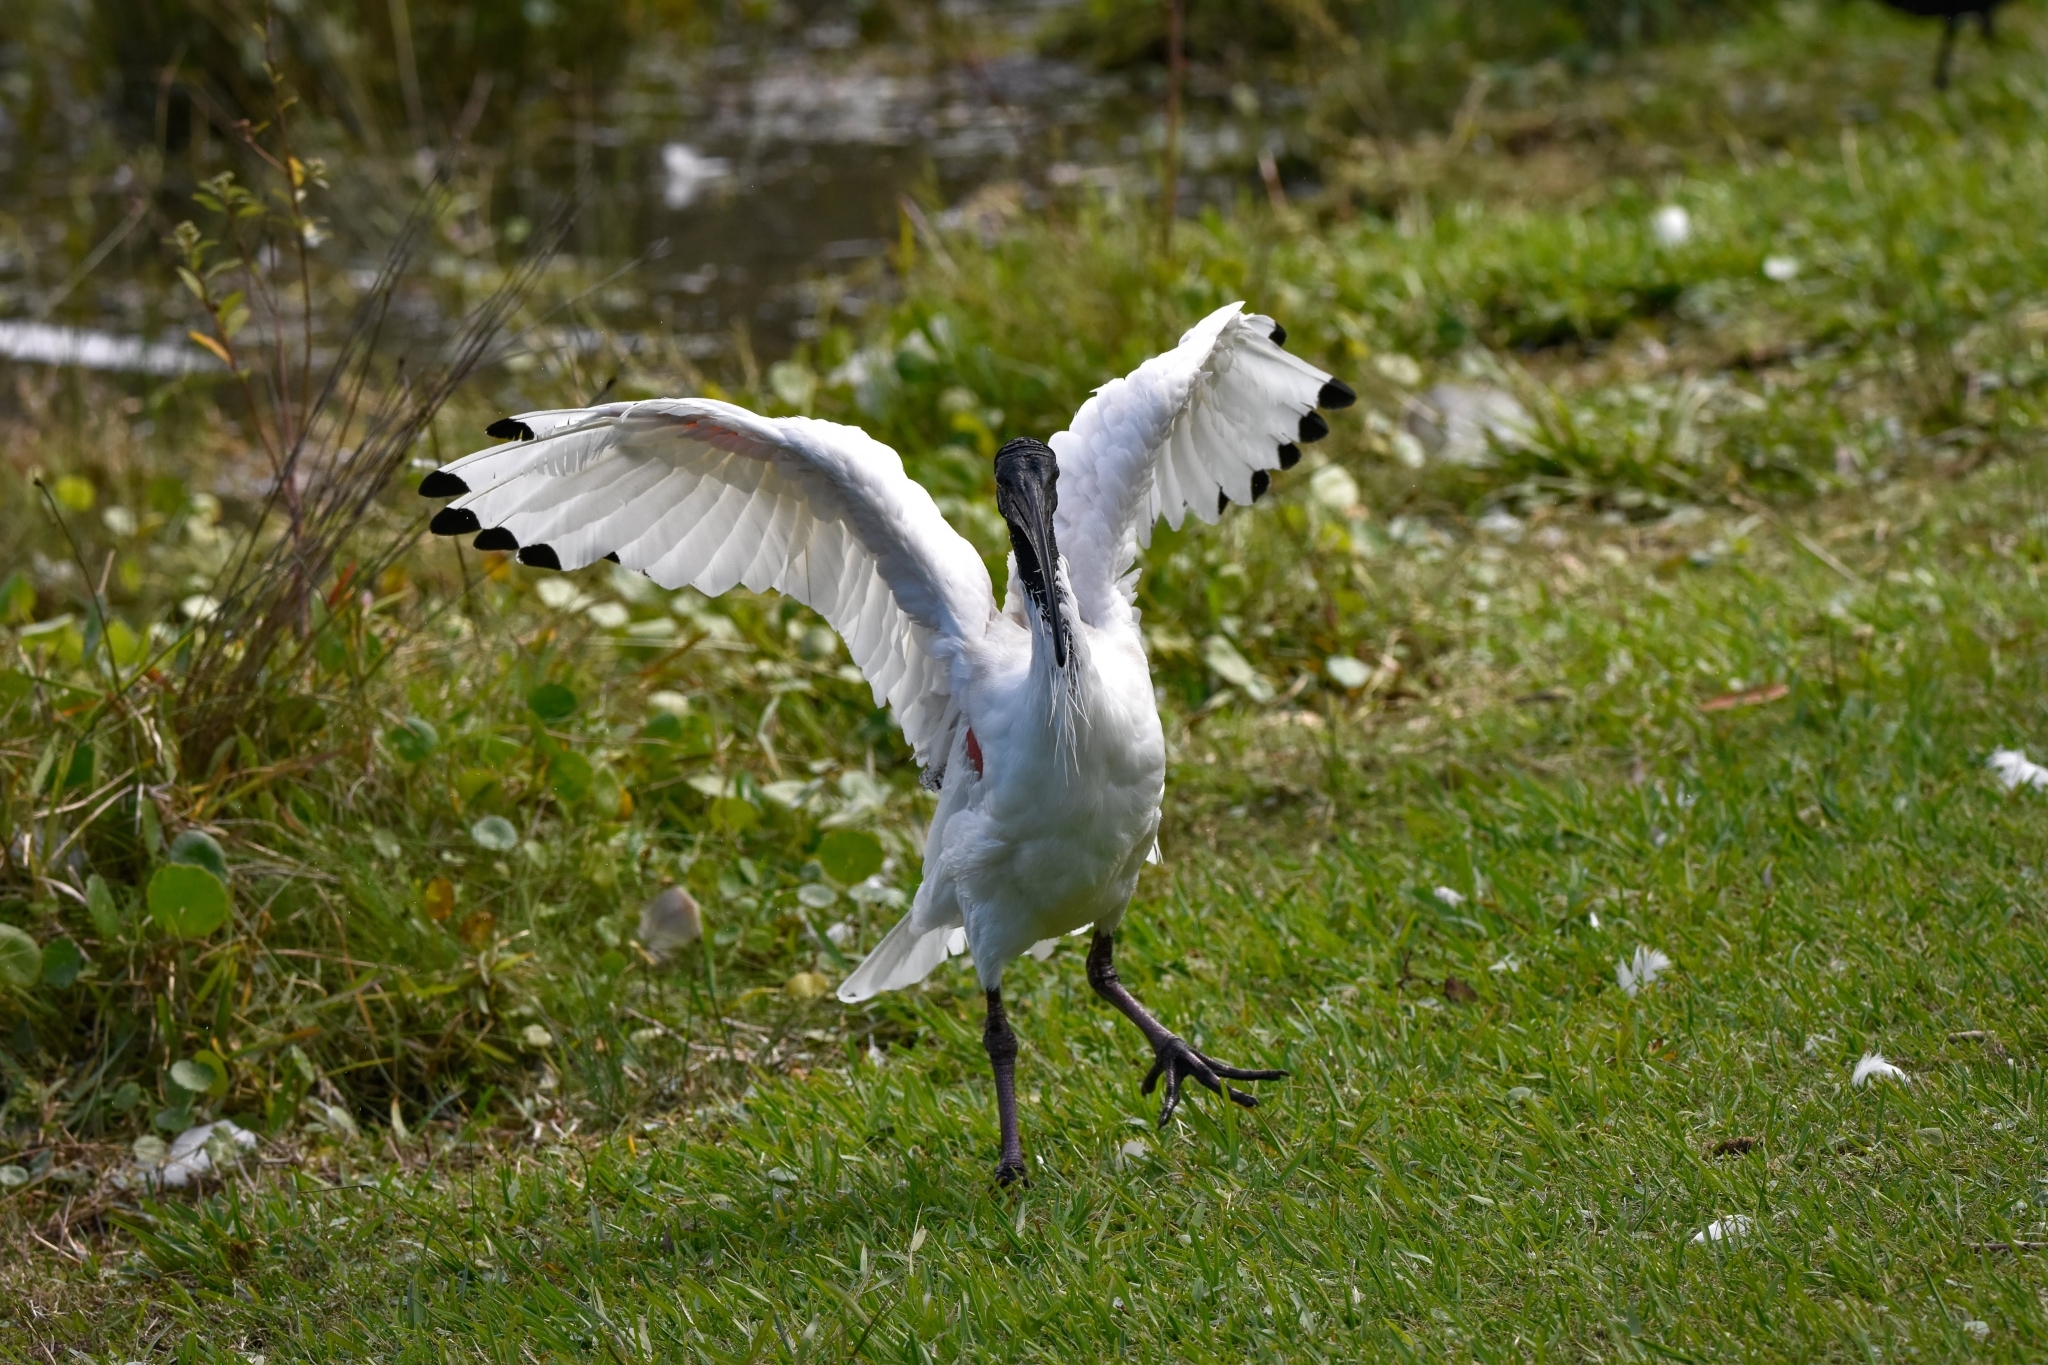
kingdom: Animalia
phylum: Chordata
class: Aves
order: Pelecaniformes
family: Threskiornithidae
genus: Threskiornis
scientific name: Threskiornis molucca
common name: Australian white ibis
